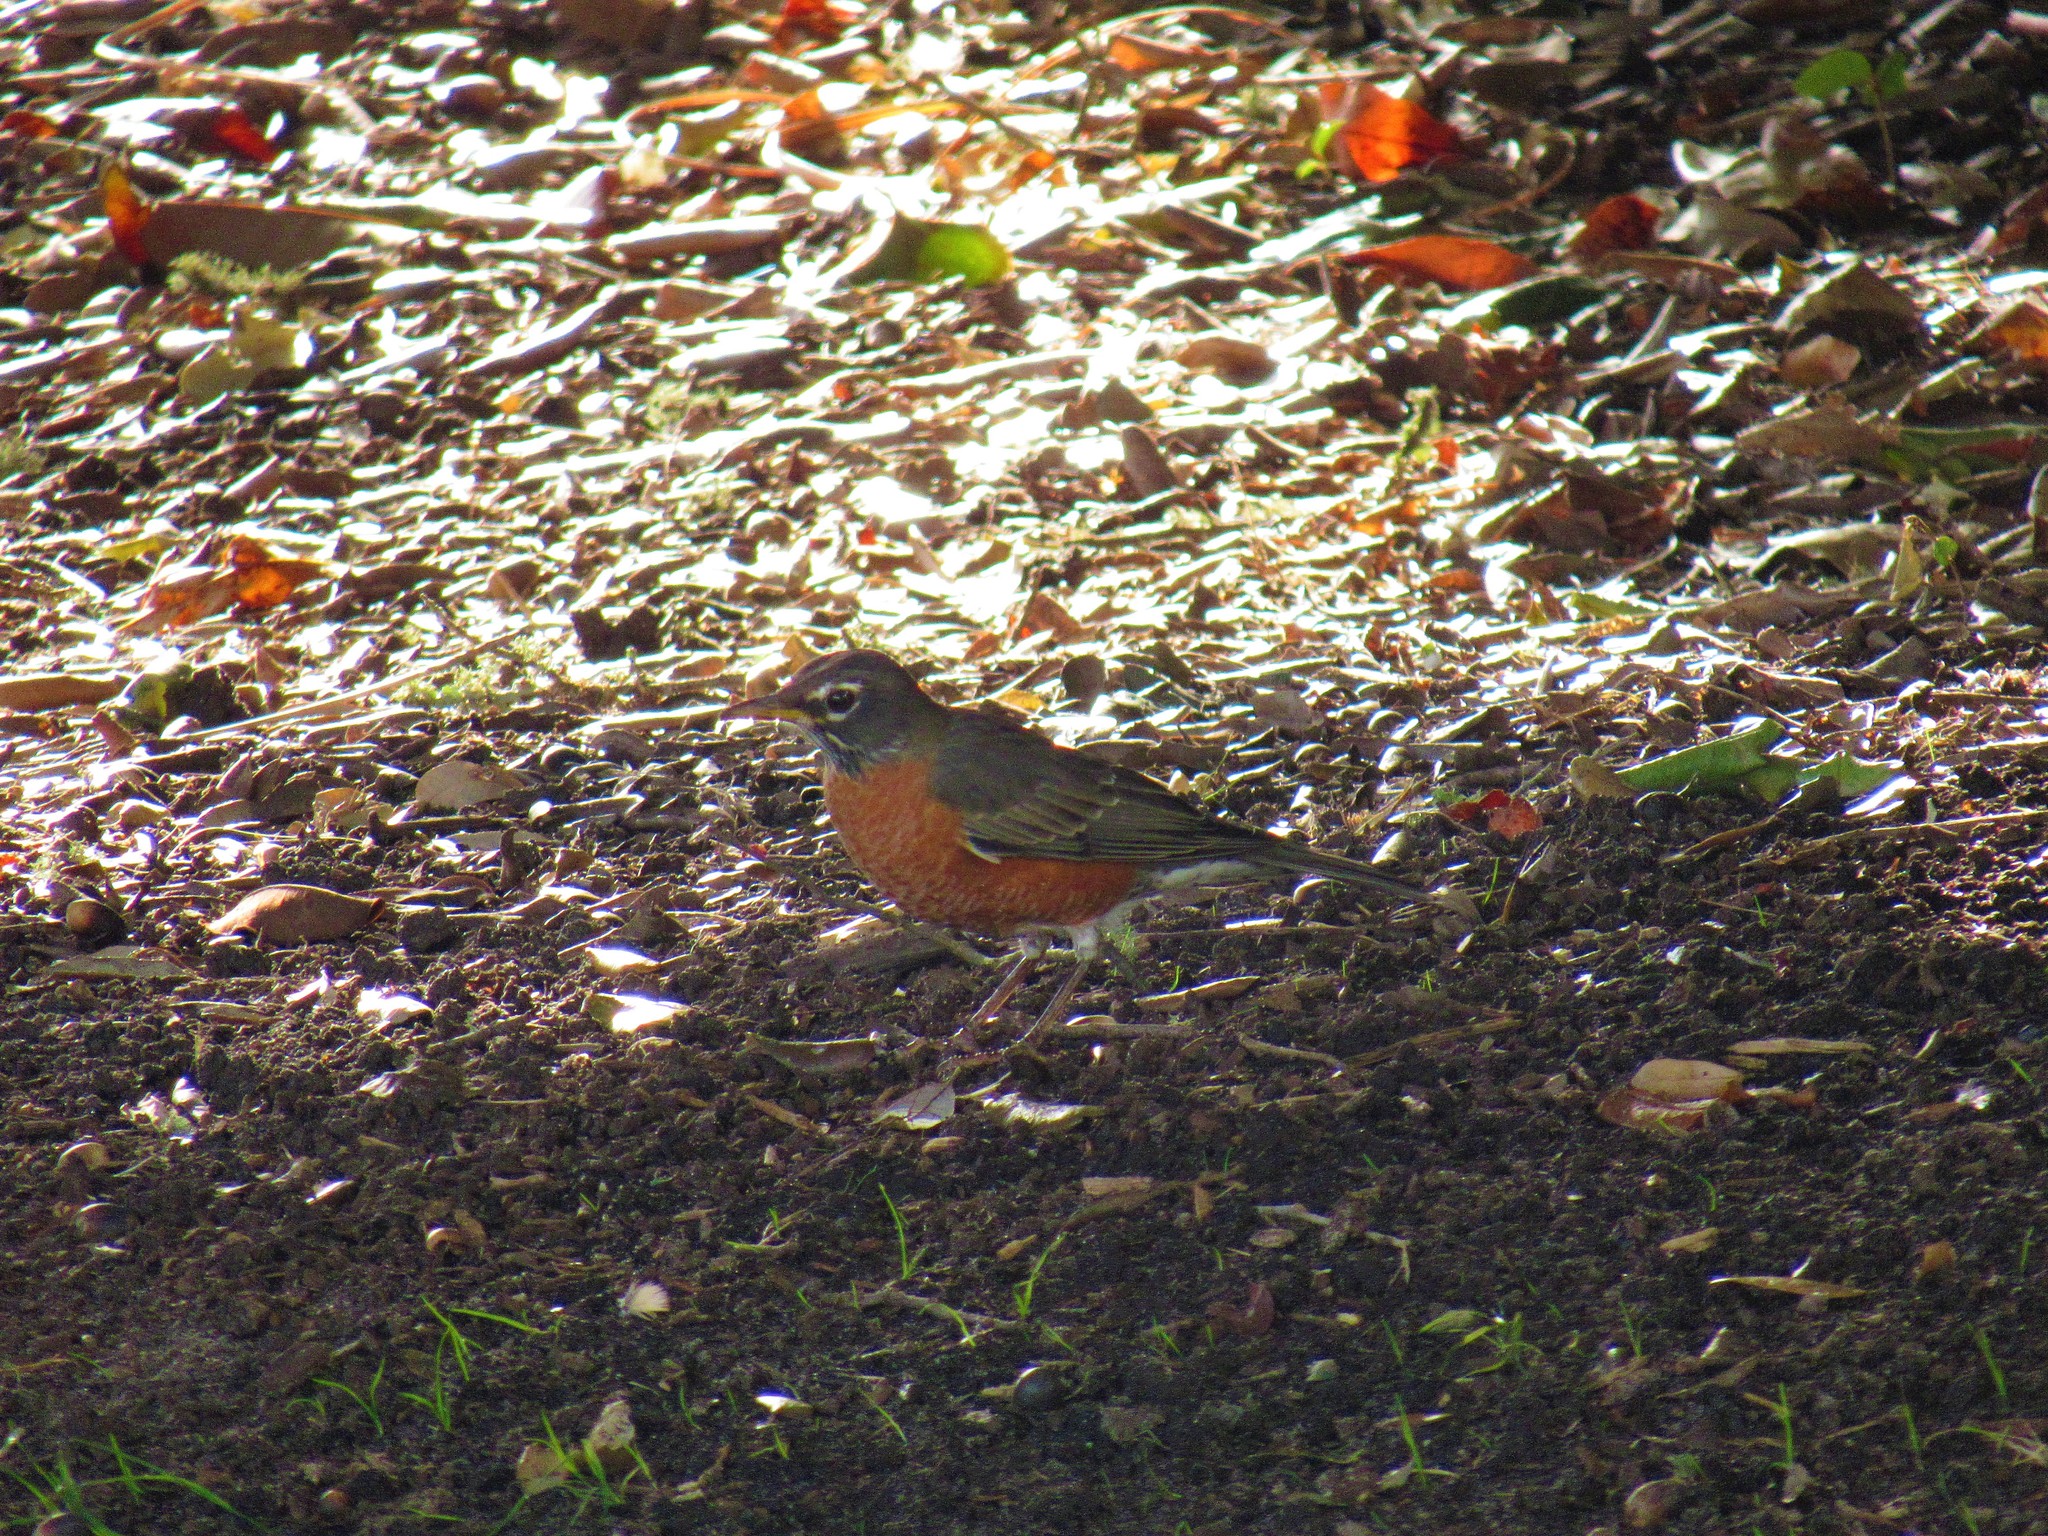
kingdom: Animalia
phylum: Chordata
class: Aves
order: Passeriformes
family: Turdidae
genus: Turdus
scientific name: Turdus migratorius
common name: American robin
